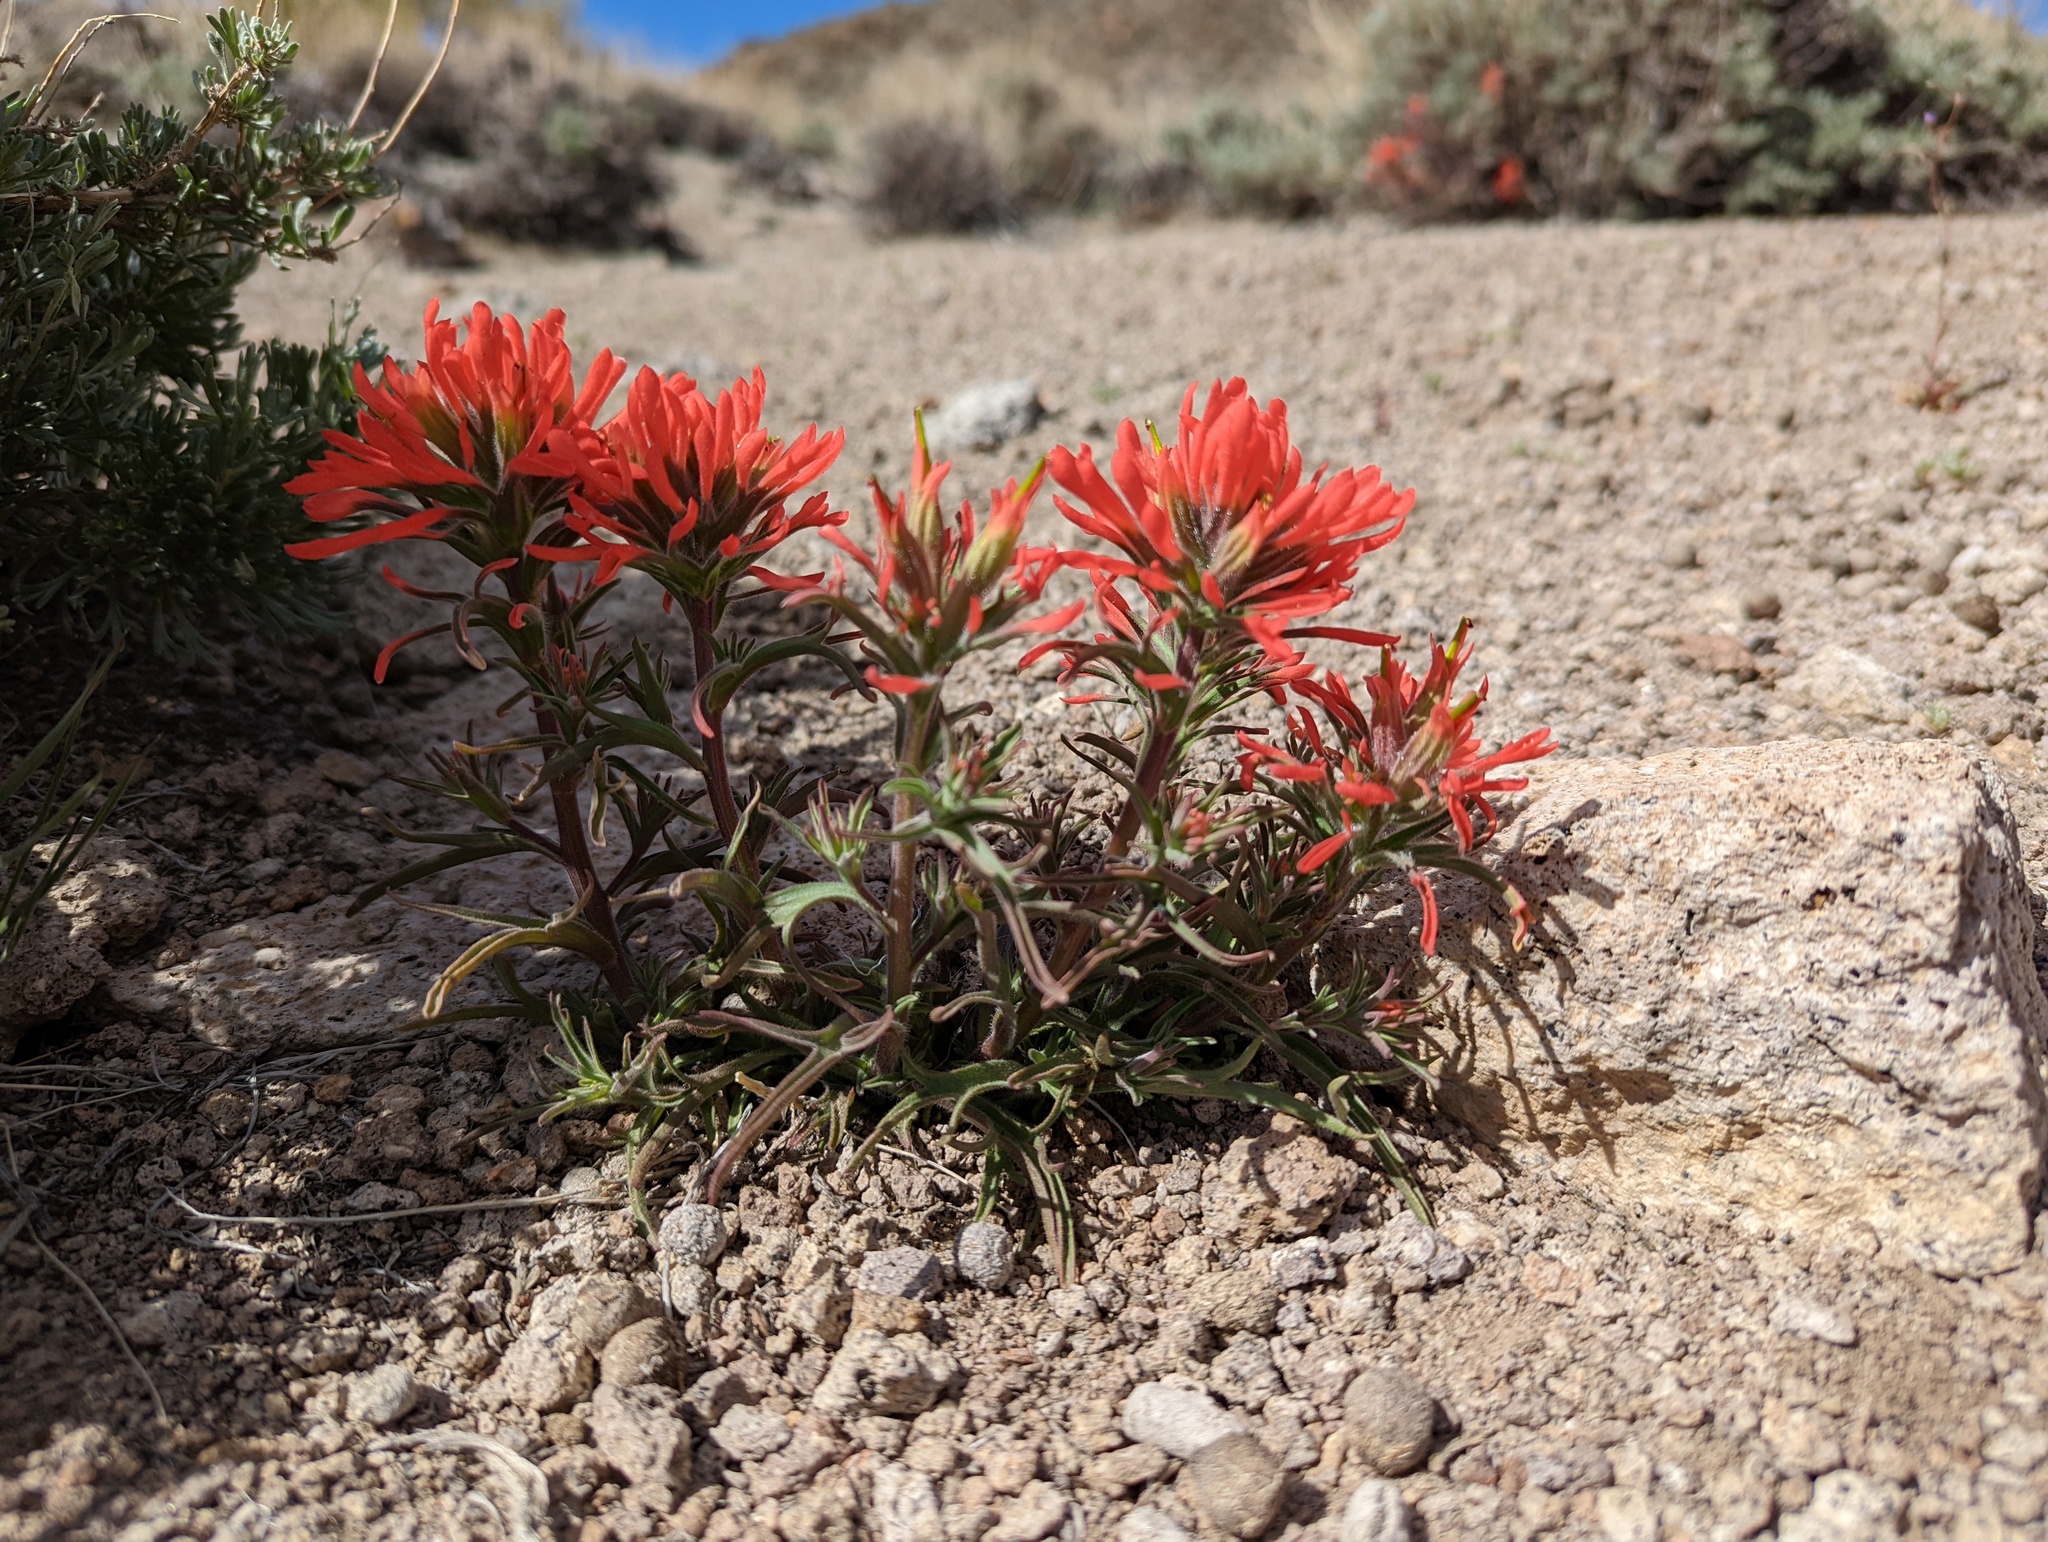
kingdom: Plantae
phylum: Tracheophyta
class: Magnoliopsida
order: Lamiales
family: Orobanchaceae
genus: Castilleja
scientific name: Castilleja chromosa
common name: Desert paintbrush
